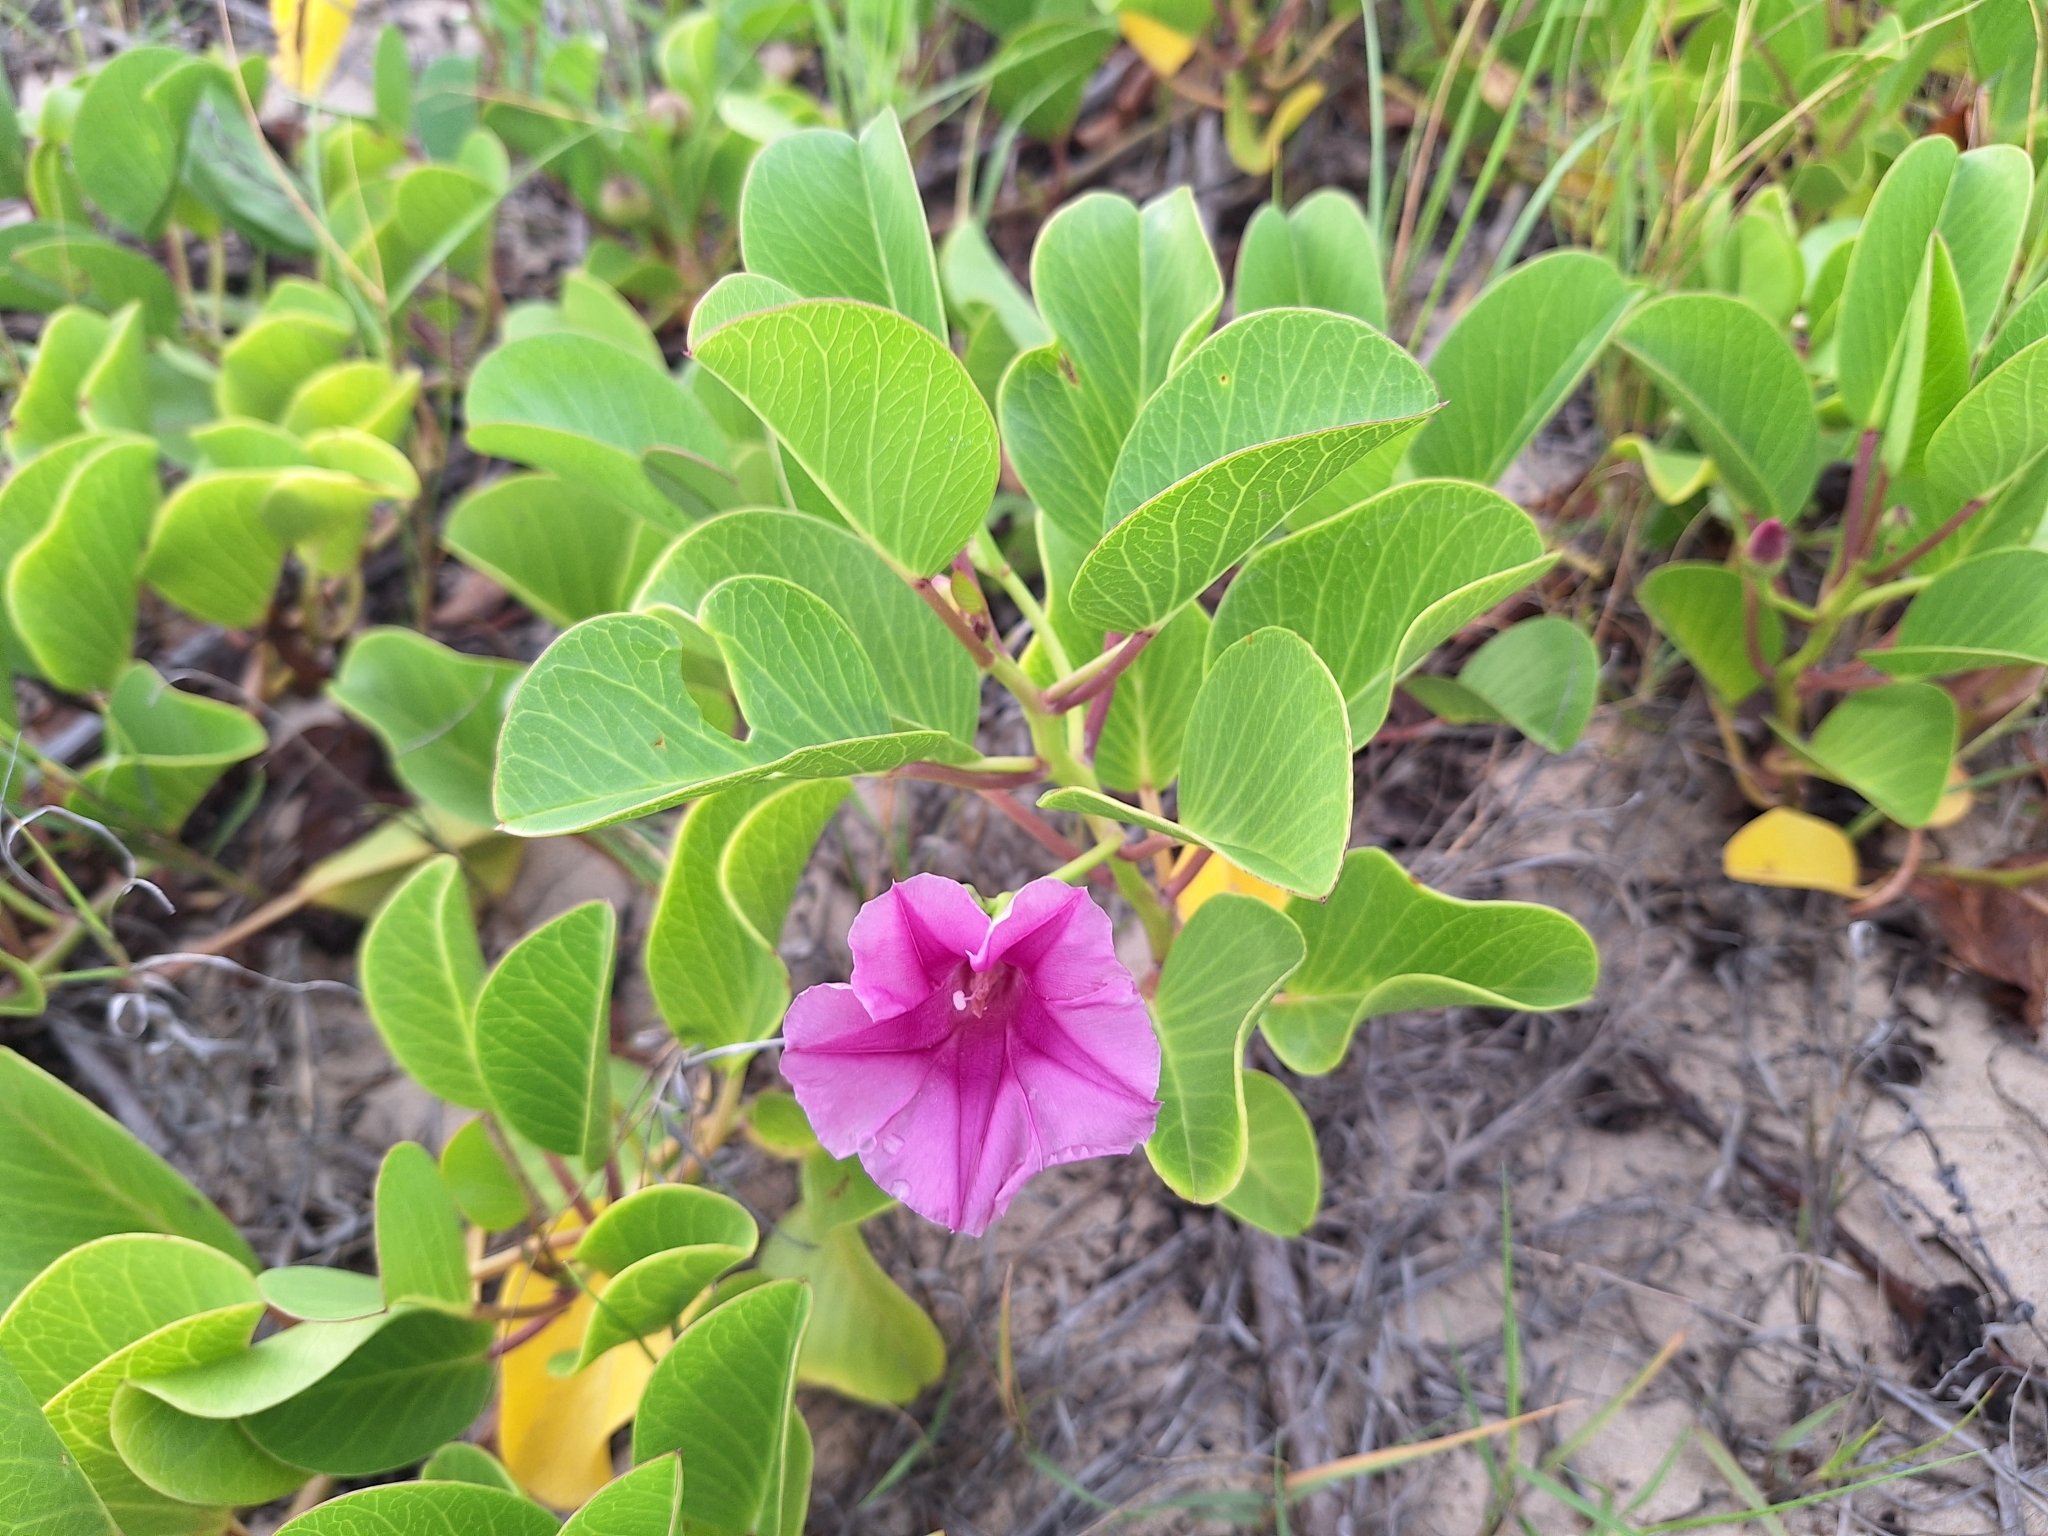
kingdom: Plantae
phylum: Tracheophyta
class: Magnoliopsida
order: Solanales
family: Convolvulaceae
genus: Ipomoea
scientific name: Ipomoea pes-caprae
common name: Beach morning glory
